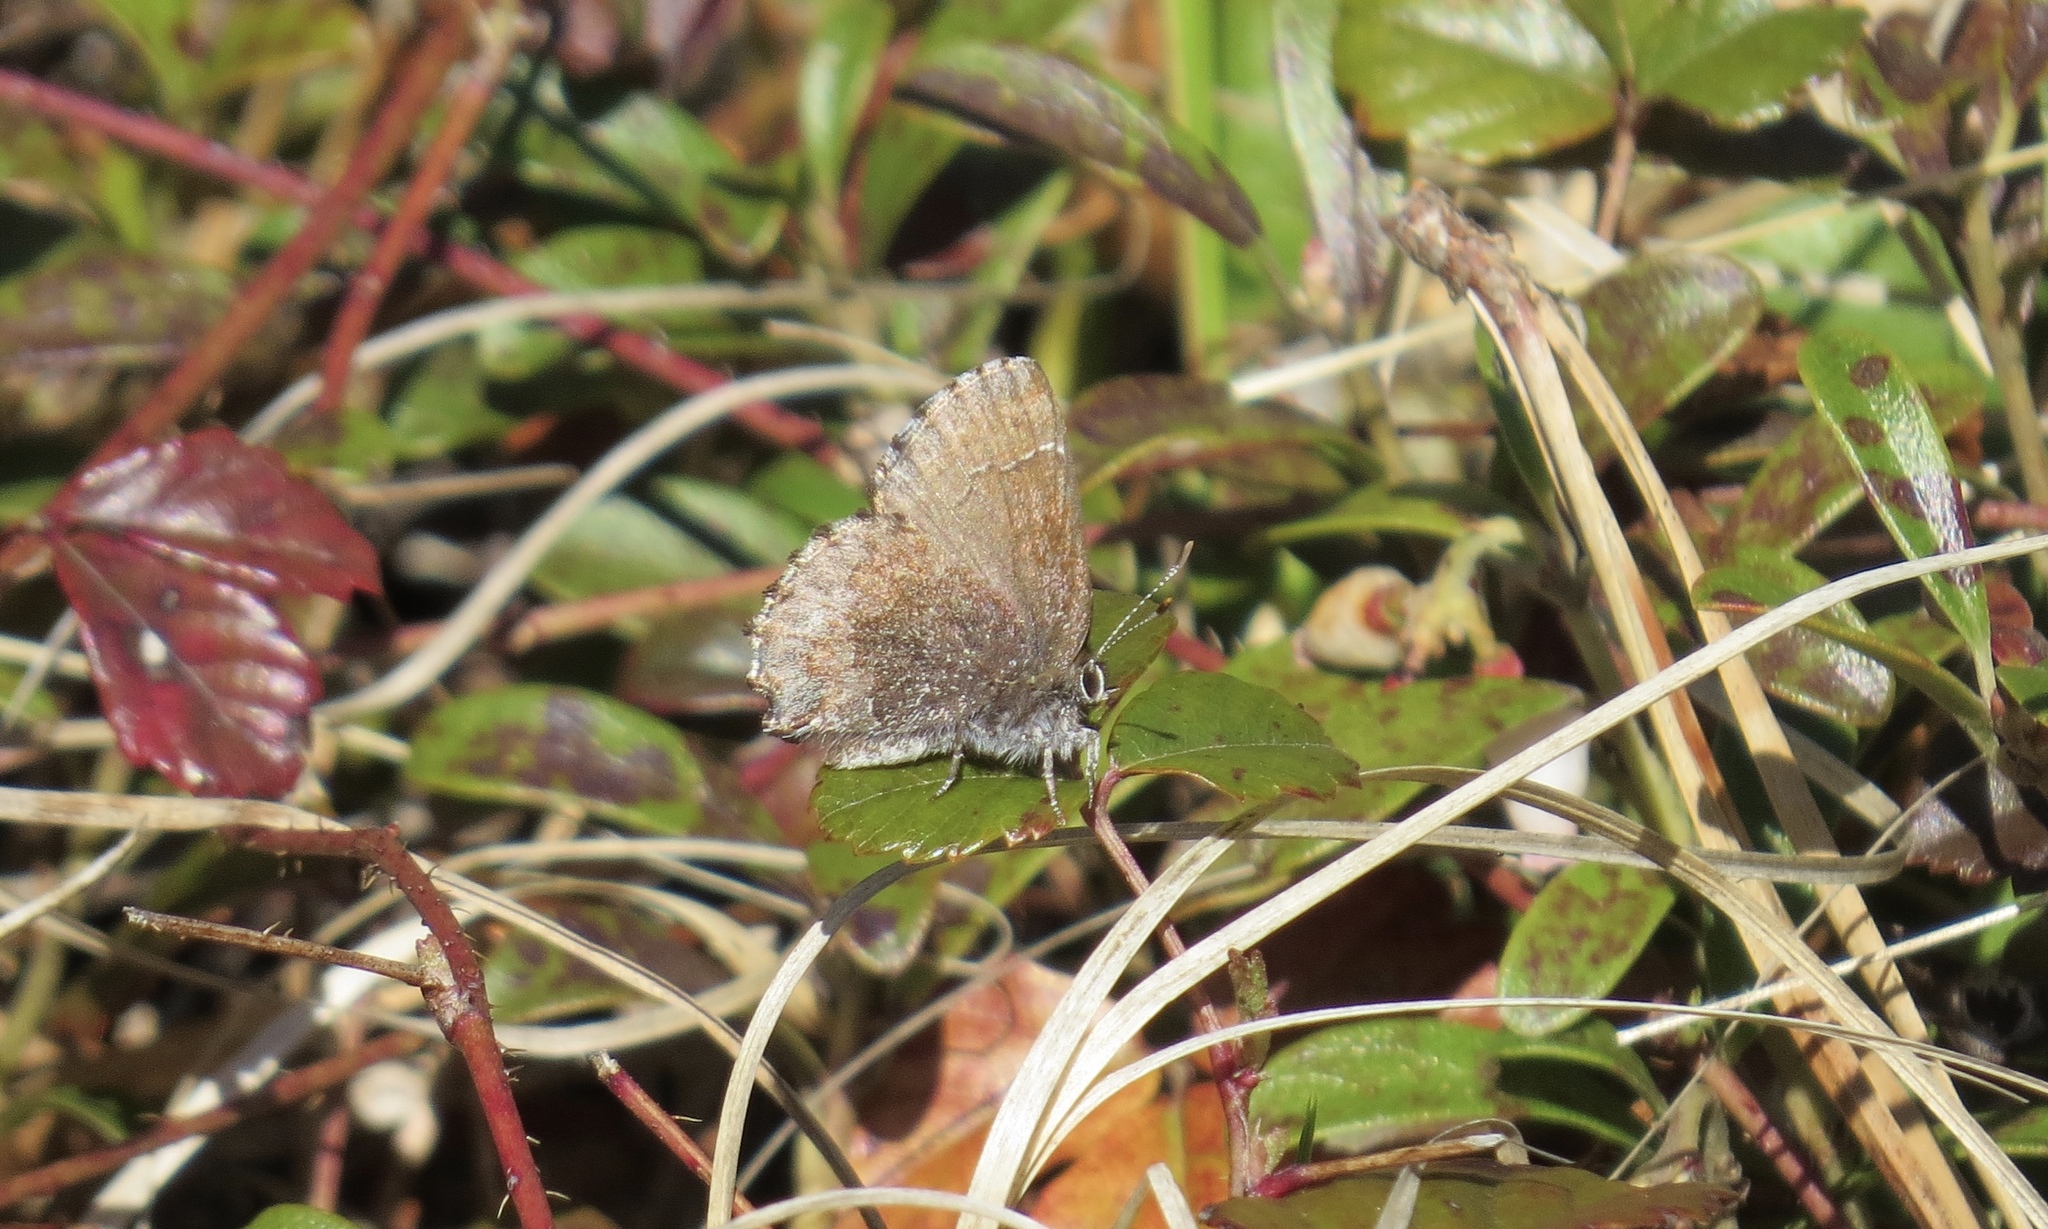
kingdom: Animalia
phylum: Arthropoda
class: Insecta
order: Lepidoptera
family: Lycaenidae
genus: Callophrys
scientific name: Callophrys polios
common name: Hoary elfin
